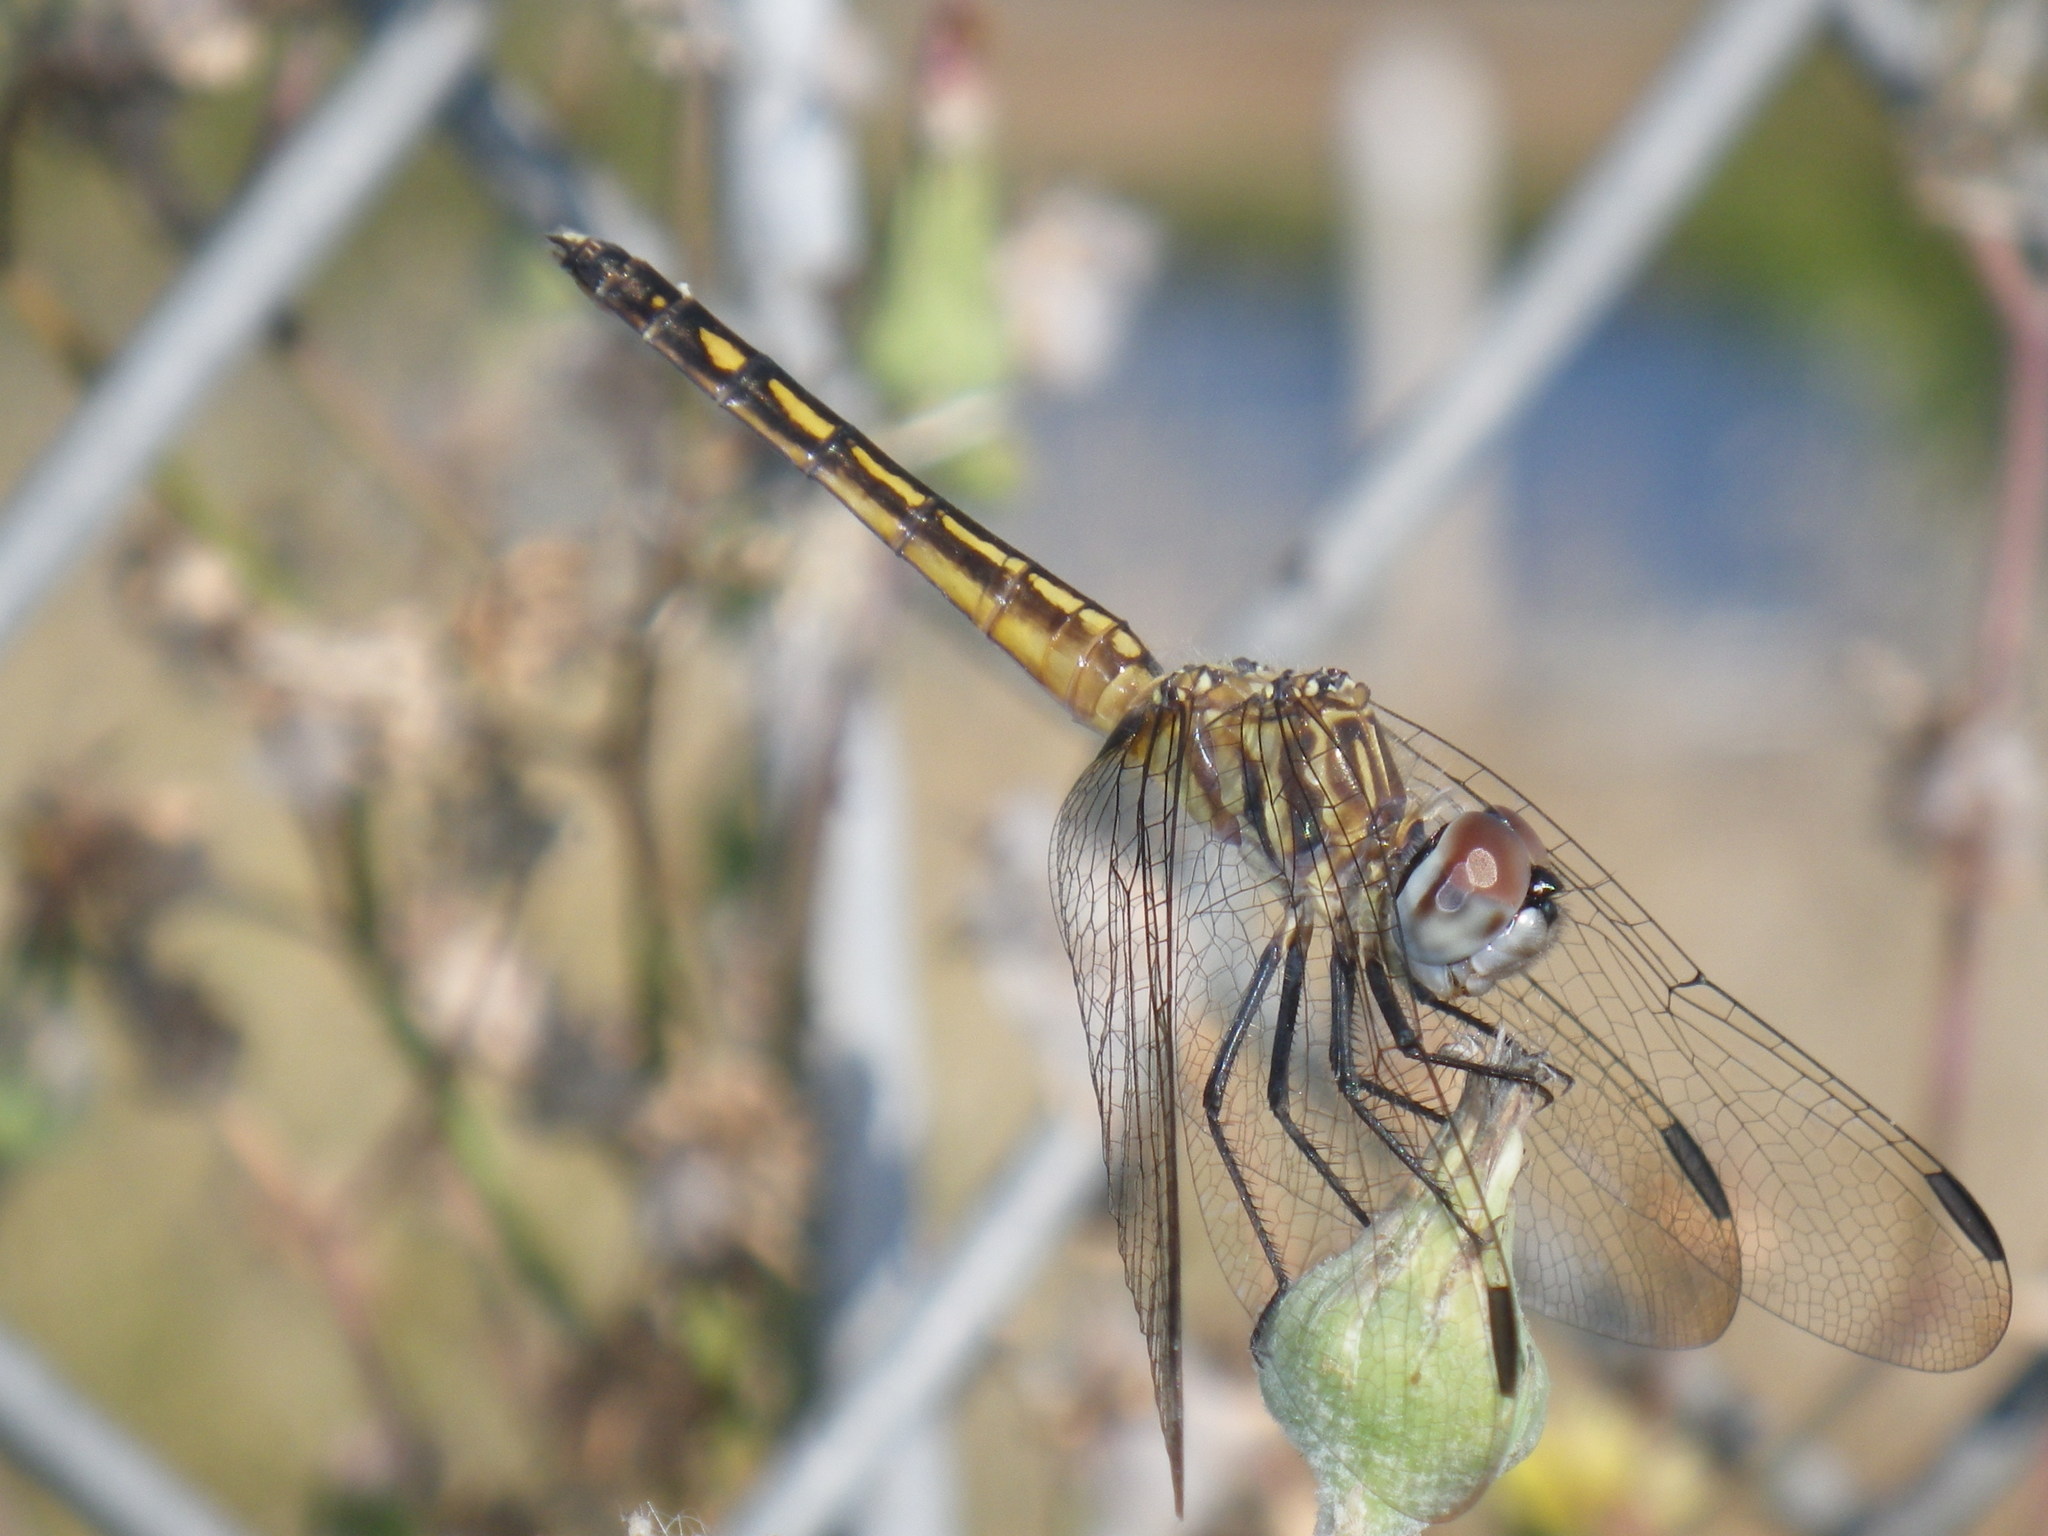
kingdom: Animalia
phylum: Arthropoda
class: Insecta
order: Odonata
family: Libellulidae
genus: Pachydiplax
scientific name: Pachydiplax longipennis
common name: Blue dasher
